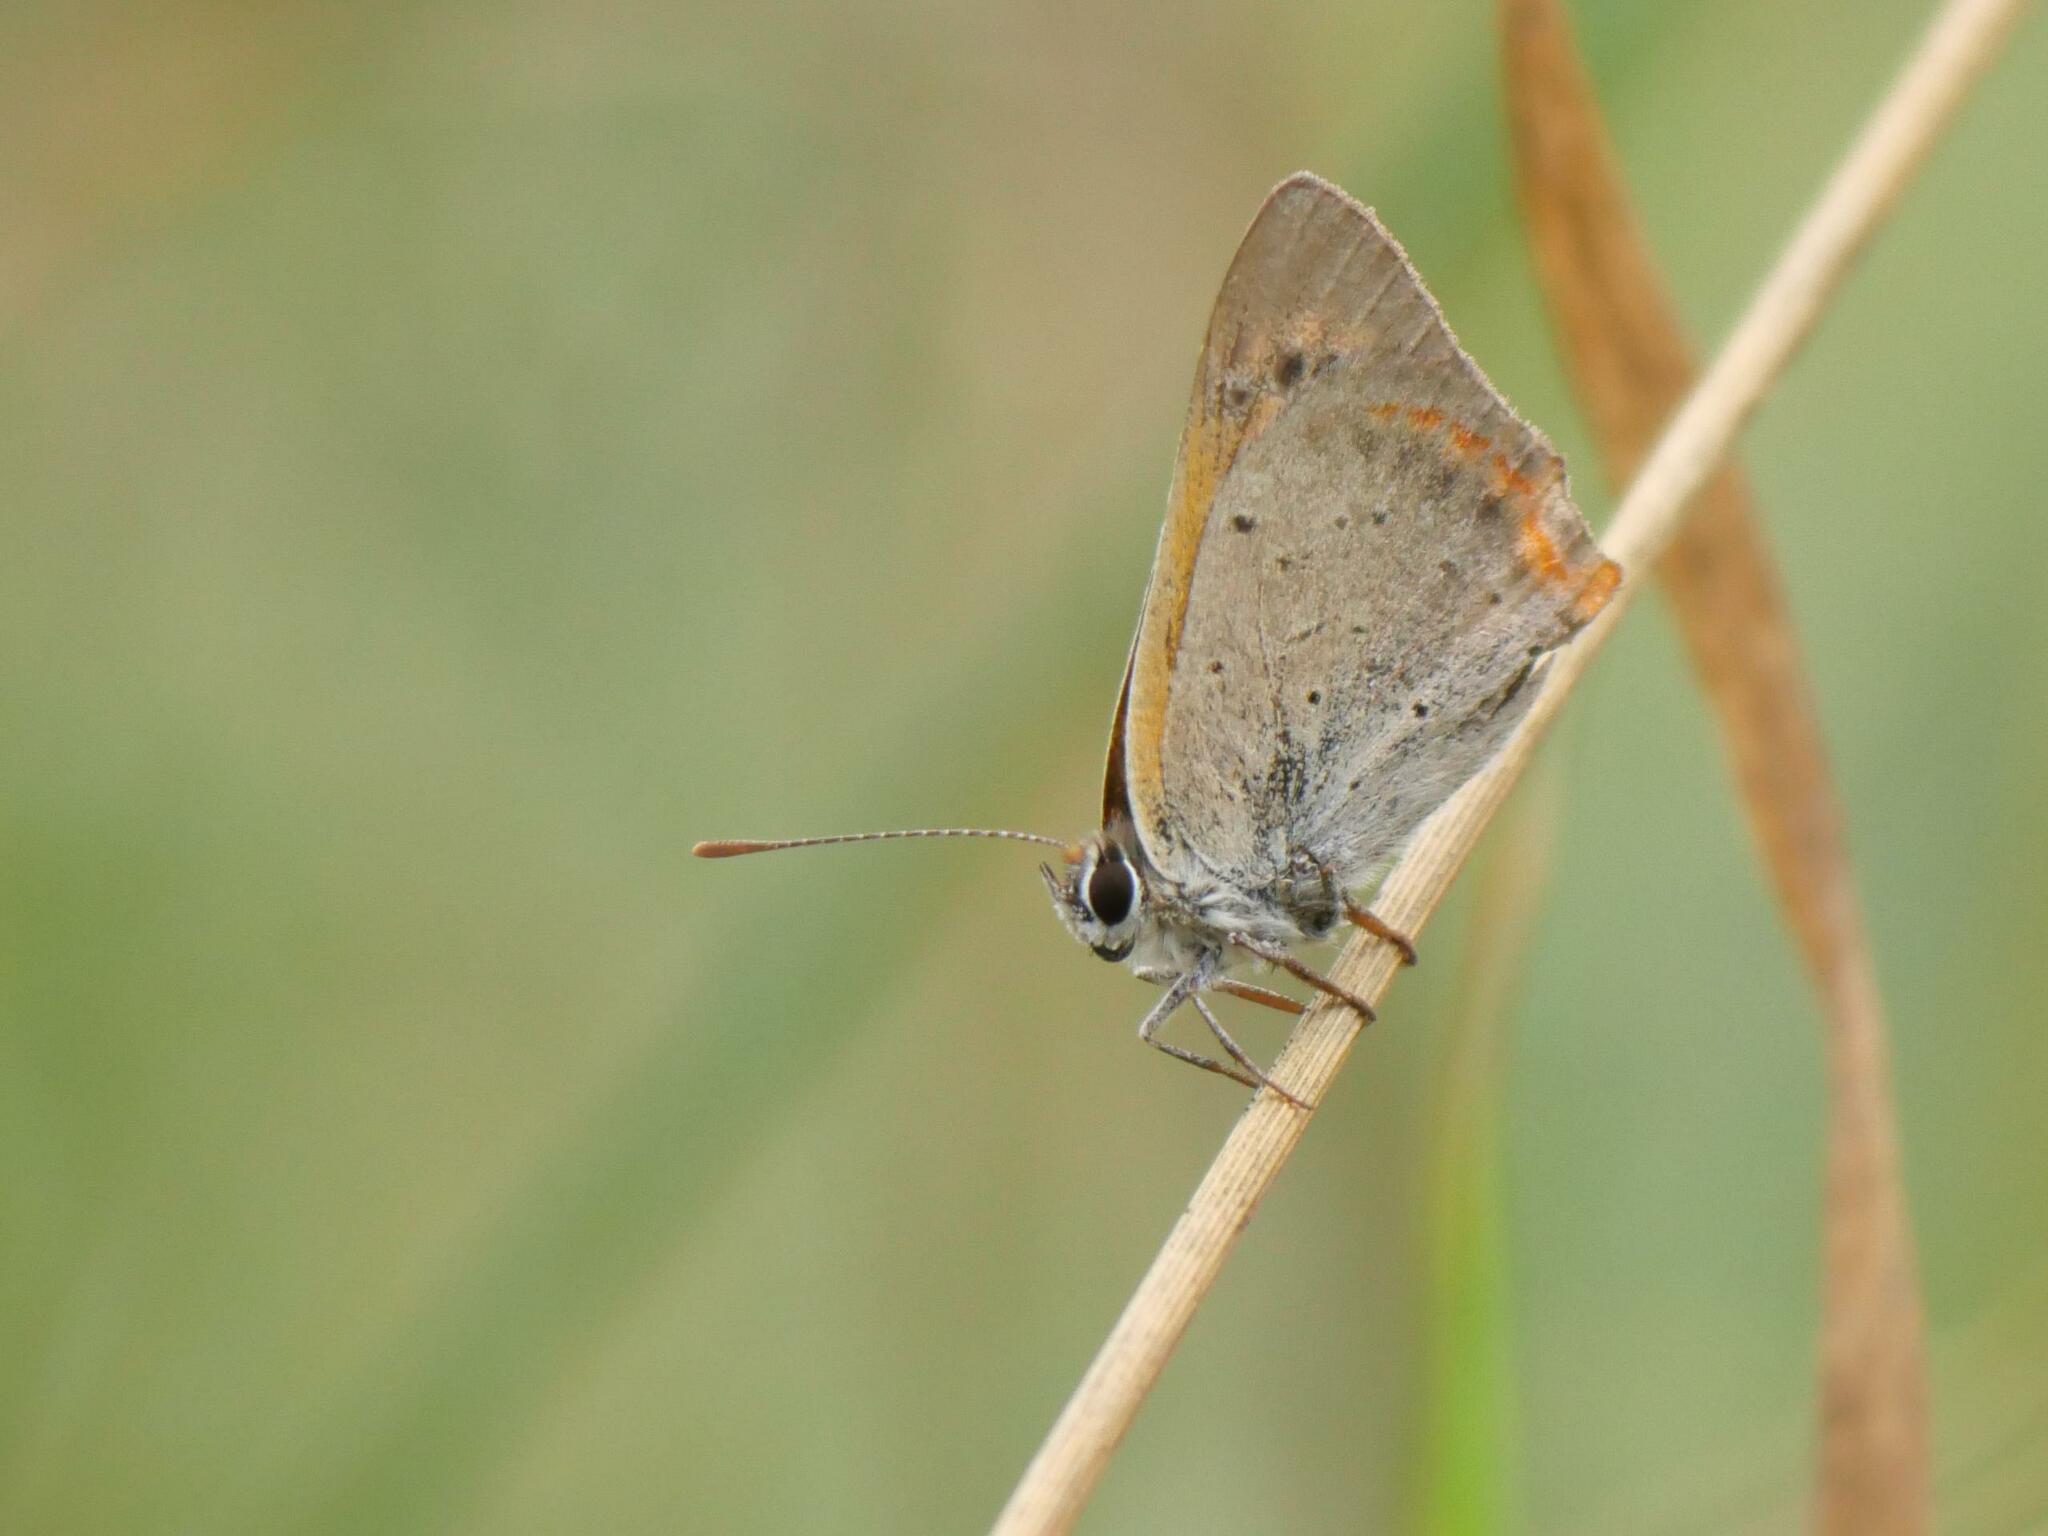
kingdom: Animalia
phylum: Arthropoda
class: Insecta
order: Lepidoptera
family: Lycaenidae
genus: Lycaena
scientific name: Lycaena phlaeas
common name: Small copper
